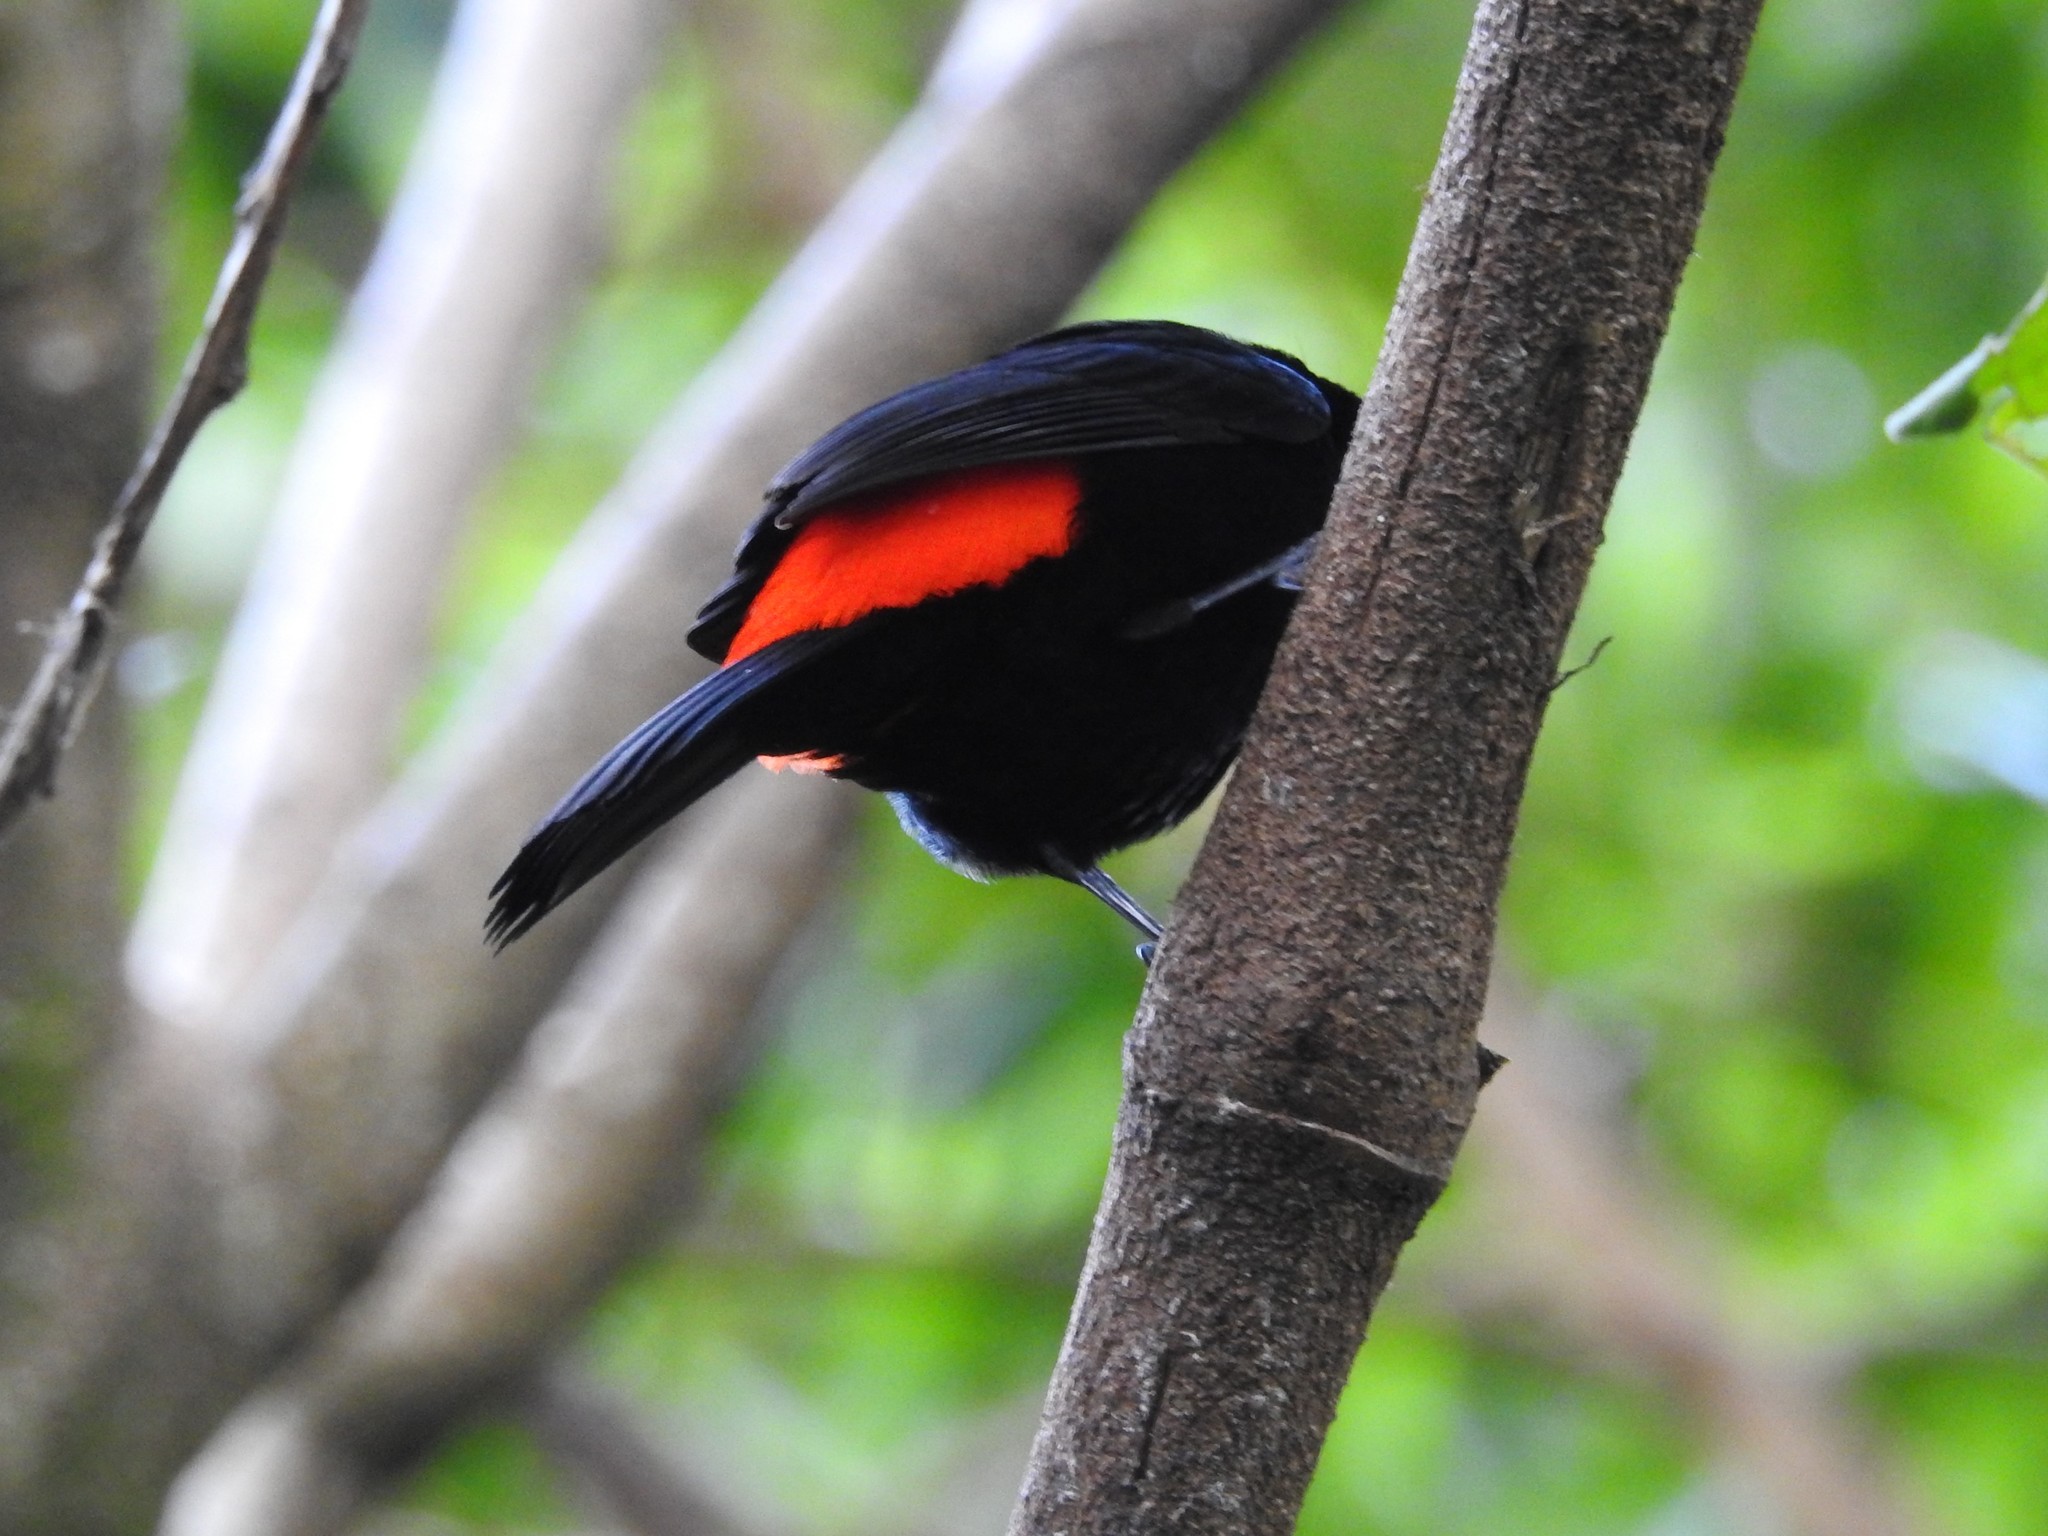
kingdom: Animalia
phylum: Chordata
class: Aves
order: Passeriformes
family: Thraupidae
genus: Ramphocelus
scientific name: Ramphocelus passerinii
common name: Passerini's tanager
